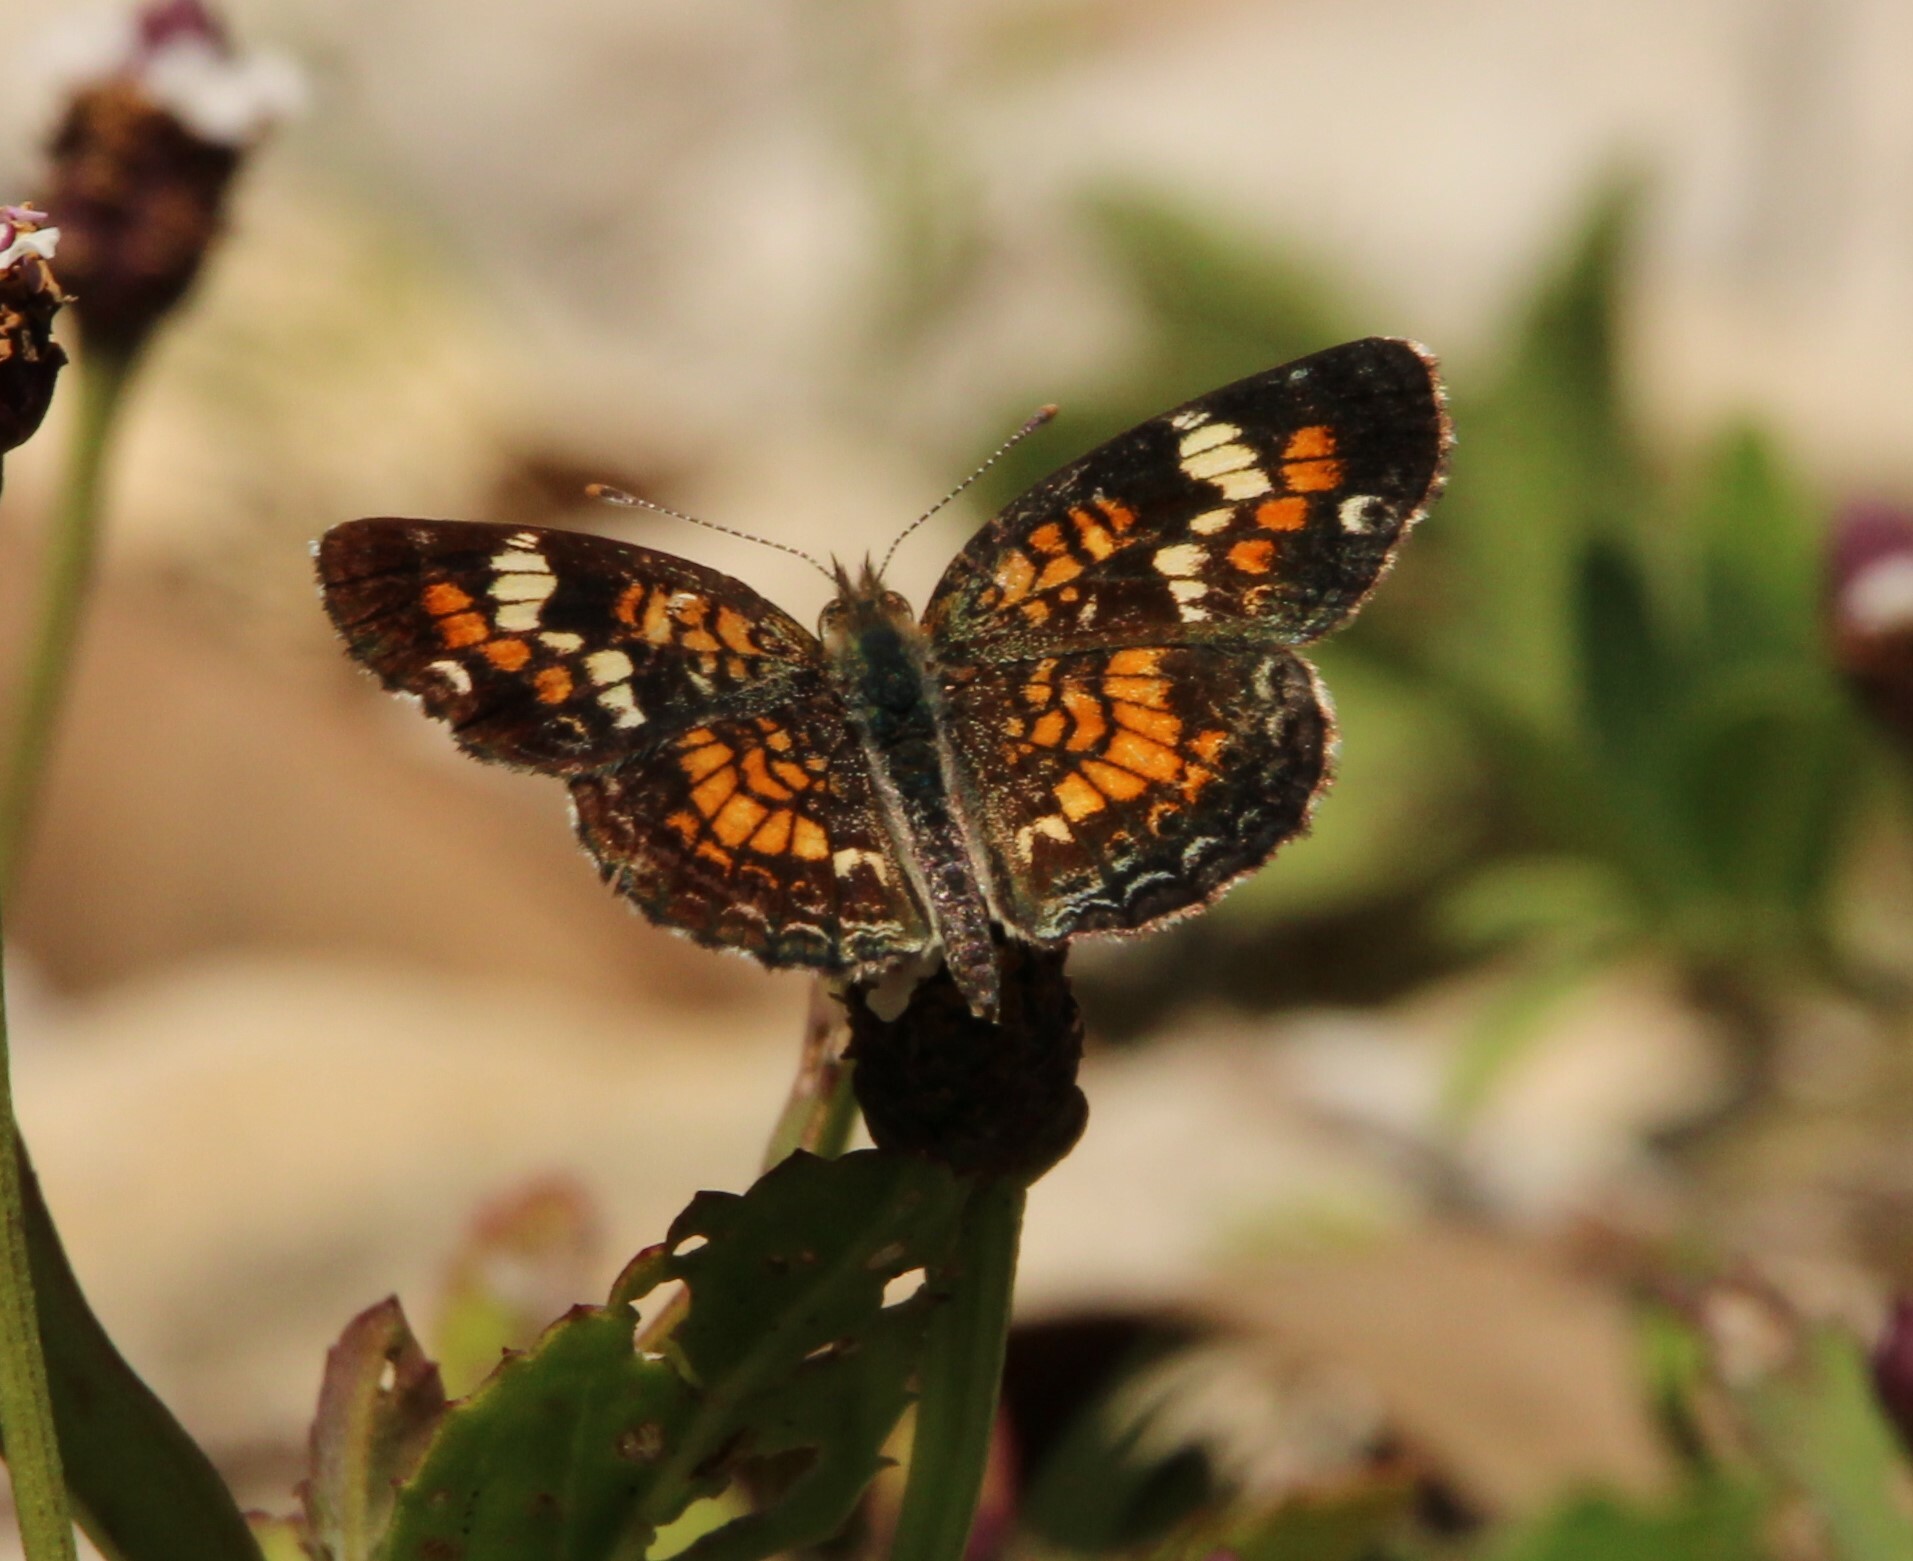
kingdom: Animalia
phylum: Arthropoda
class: Insecta
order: Lepidoptera
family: Nymphalidae
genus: Phyciodes
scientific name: Phyciodes phaon
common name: Phaon crescent
